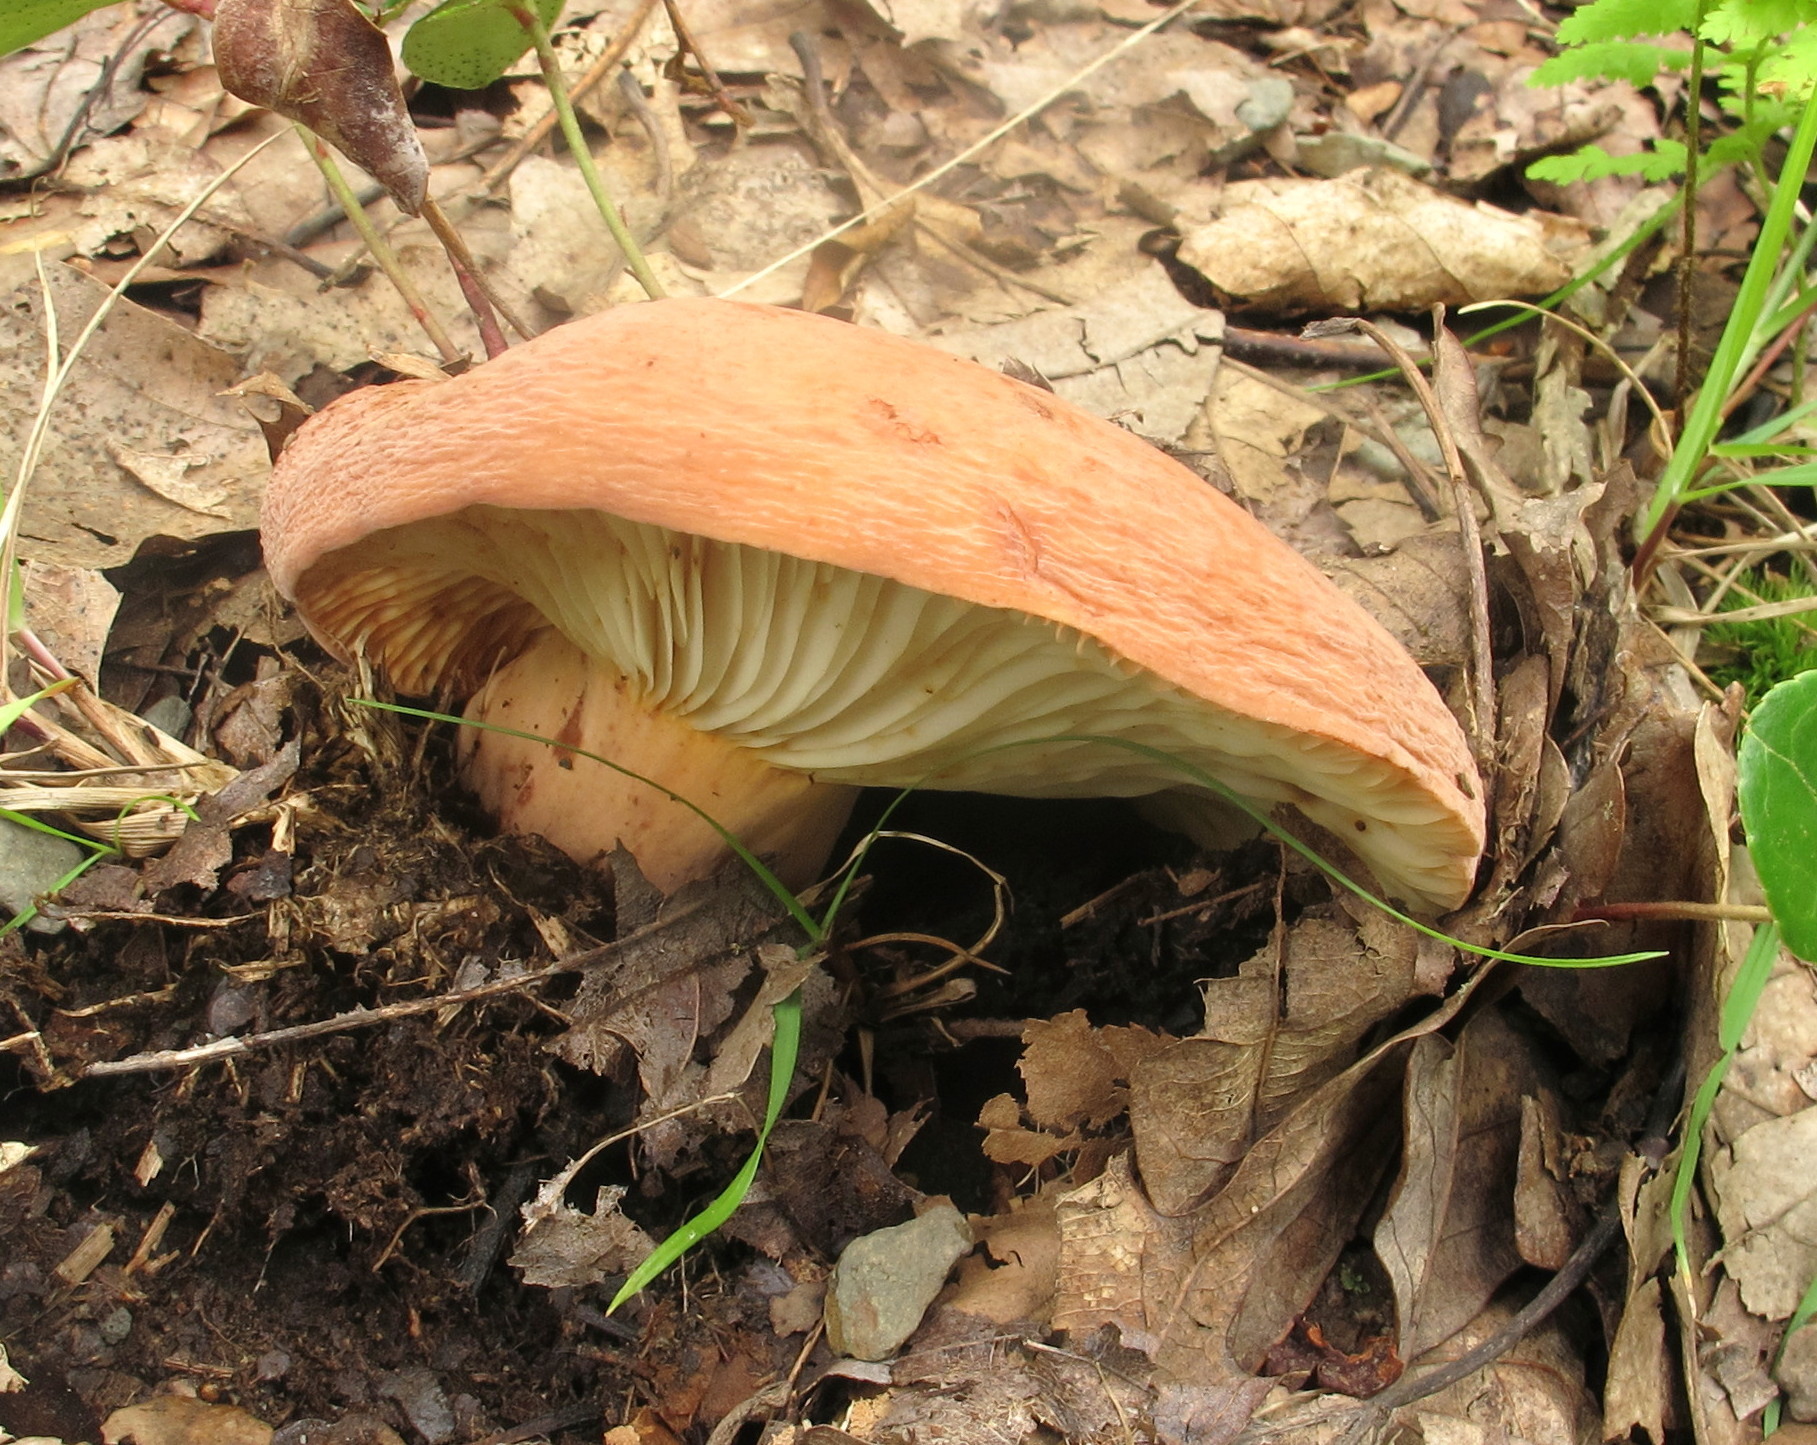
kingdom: Fungi
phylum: Basidiomycota
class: Agaricomycetes
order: Russulales
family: Russulaceae
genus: Lactifluus
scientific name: Lactifluus volemus
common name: Fishy milkcap
